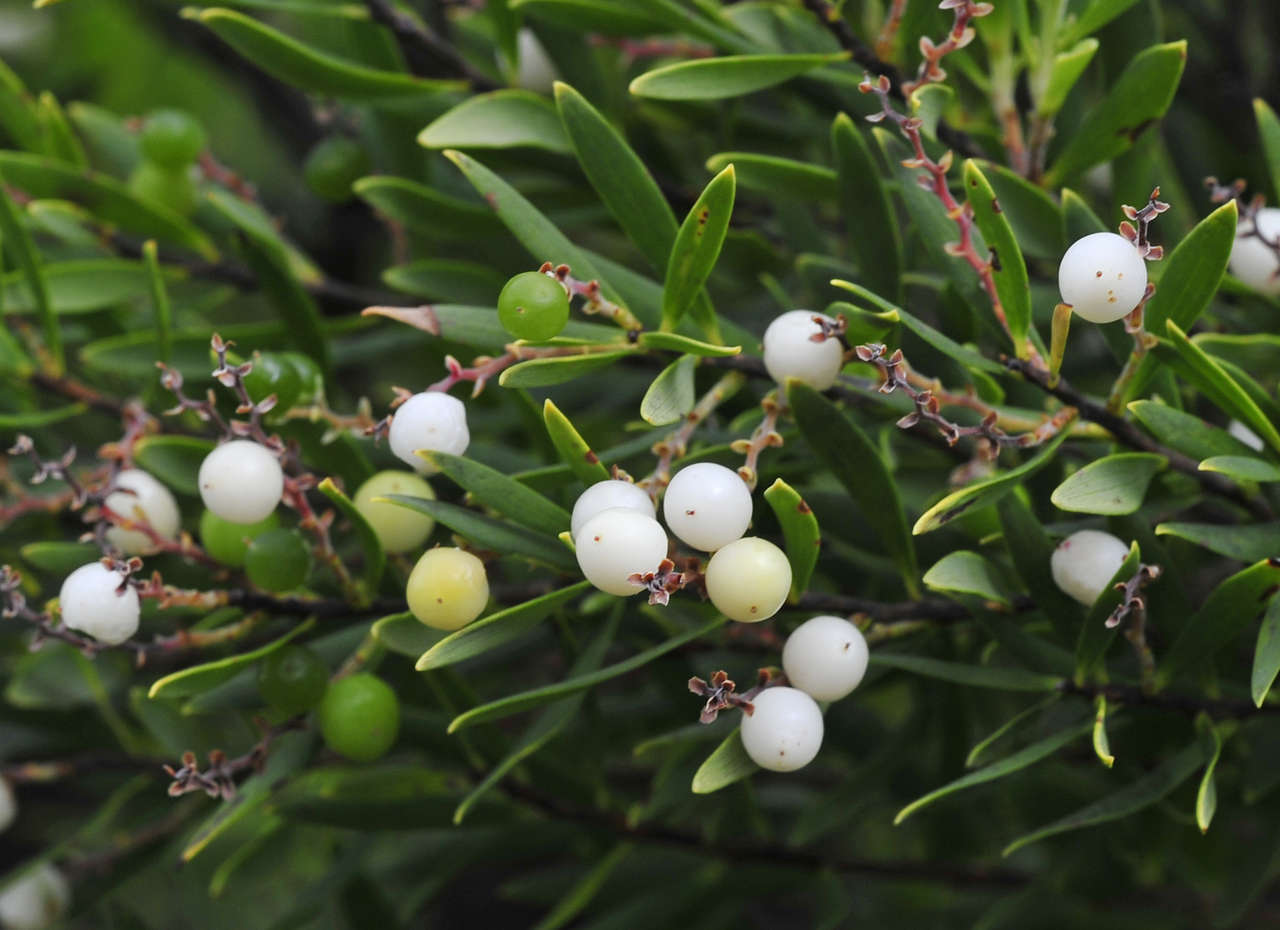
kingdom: Plantae
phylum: Tracheophyta
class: Magnoliopsida
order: Ericales
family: Ericaceae
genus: Leptecophylla
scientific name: Leptecophylla parvifolia
